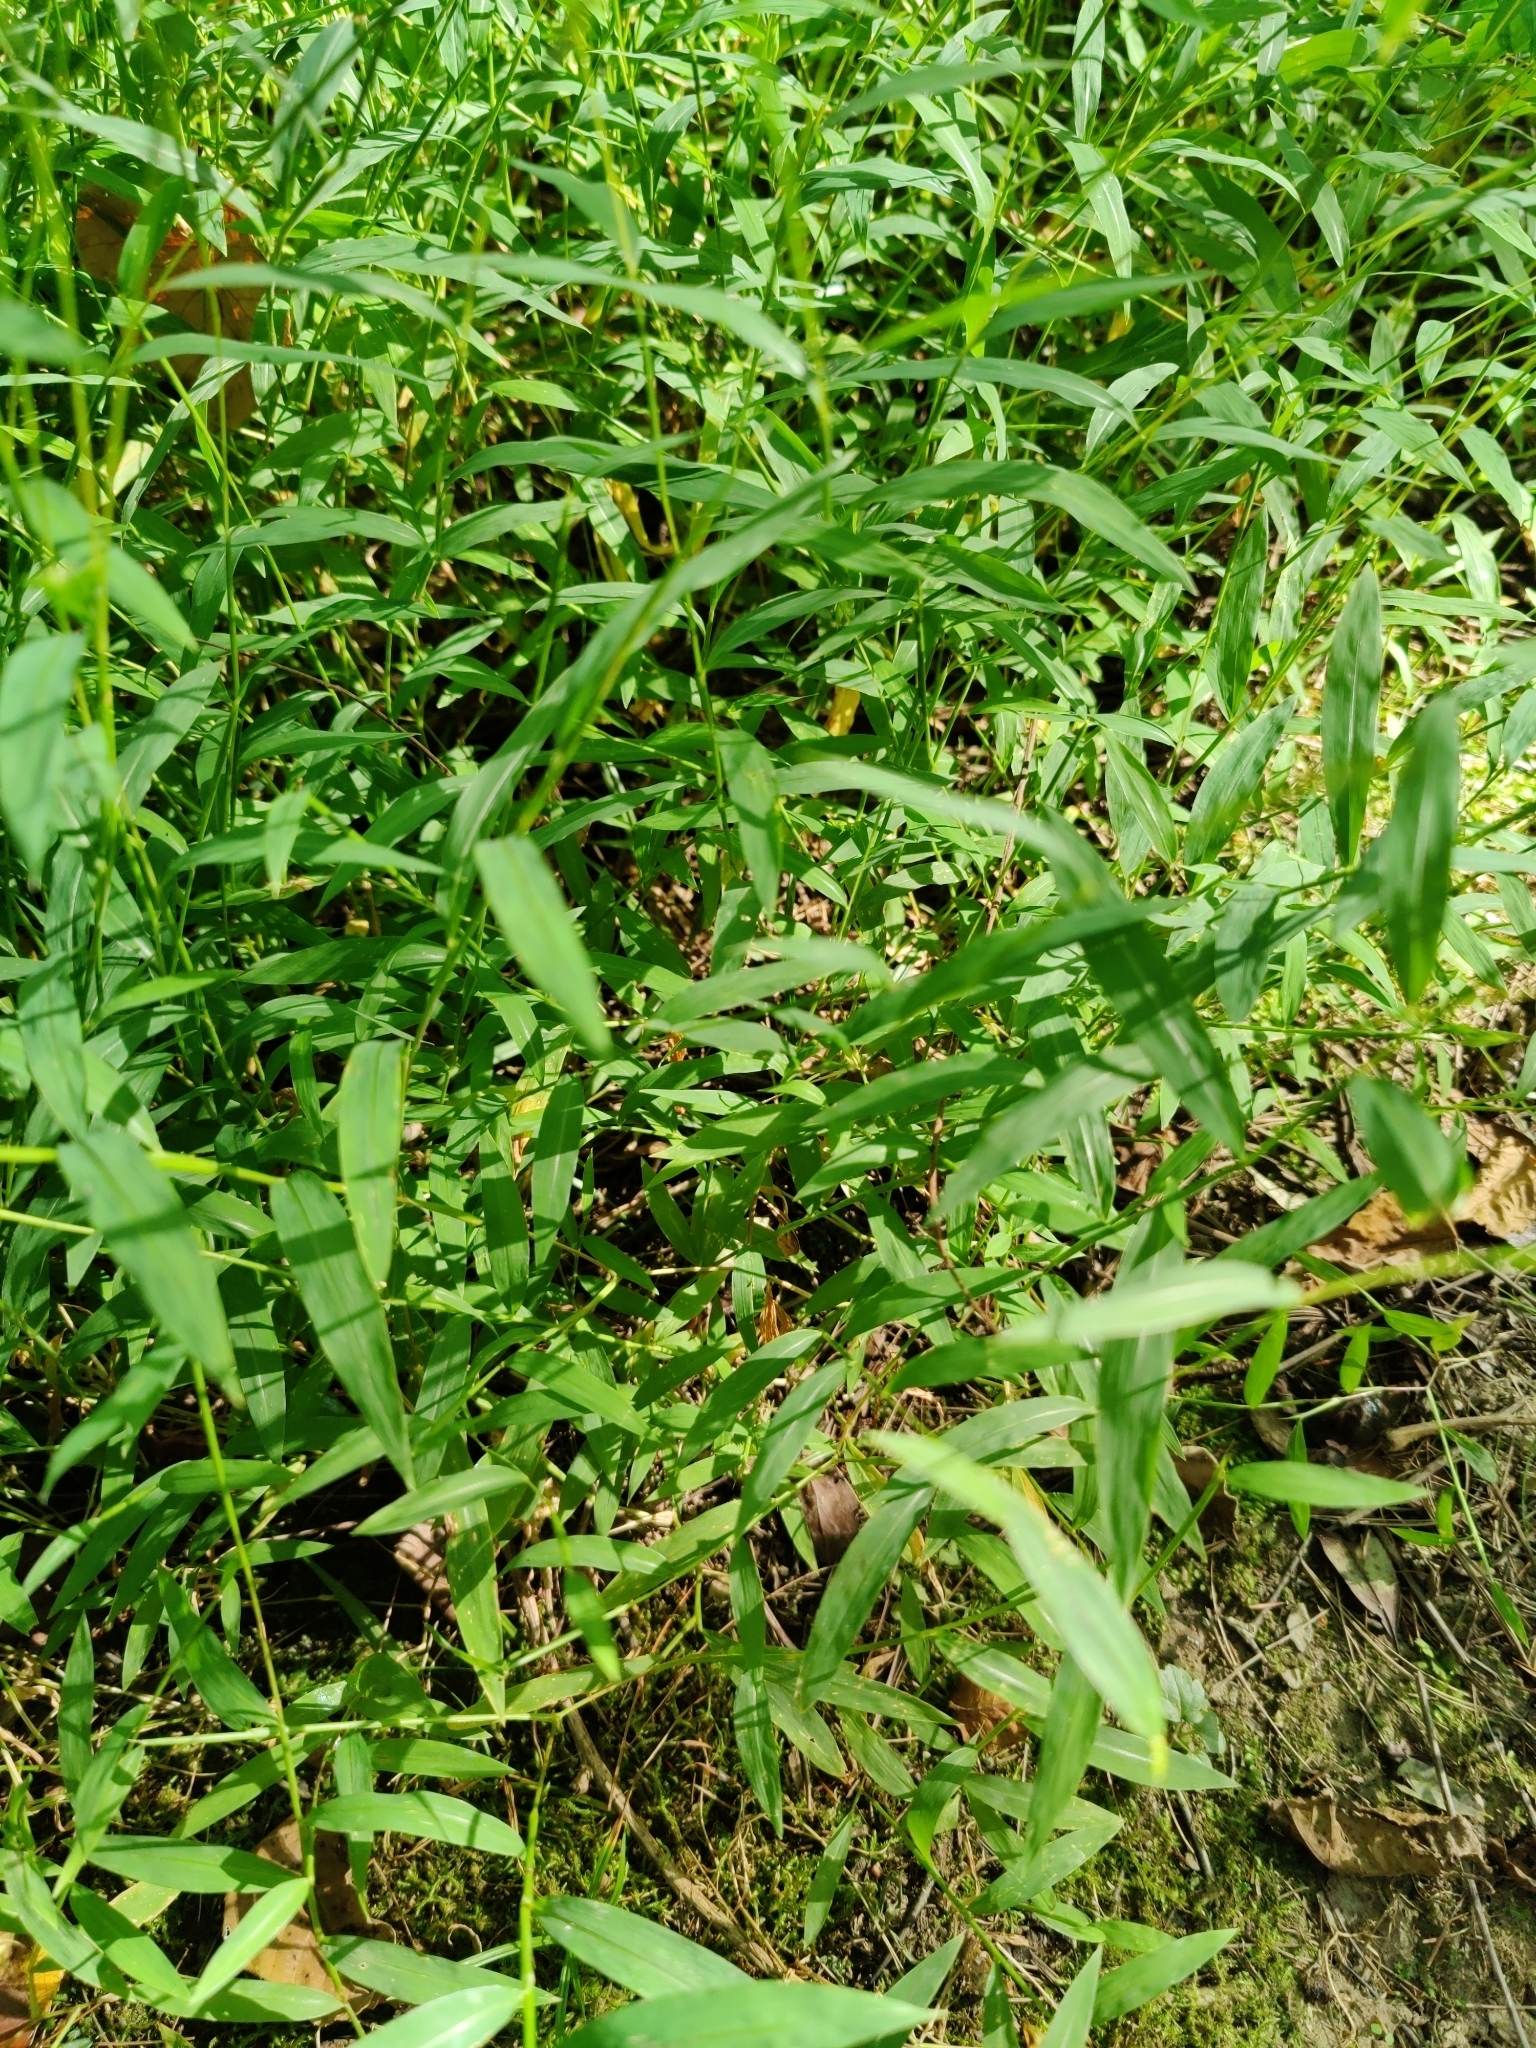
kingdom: Plantae
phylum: Tracheophyta
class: Liliopsida
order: Poales
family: Poaceae
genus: Microstegium
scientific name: Microstegium vimineum
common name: Japanese stiltgrass
